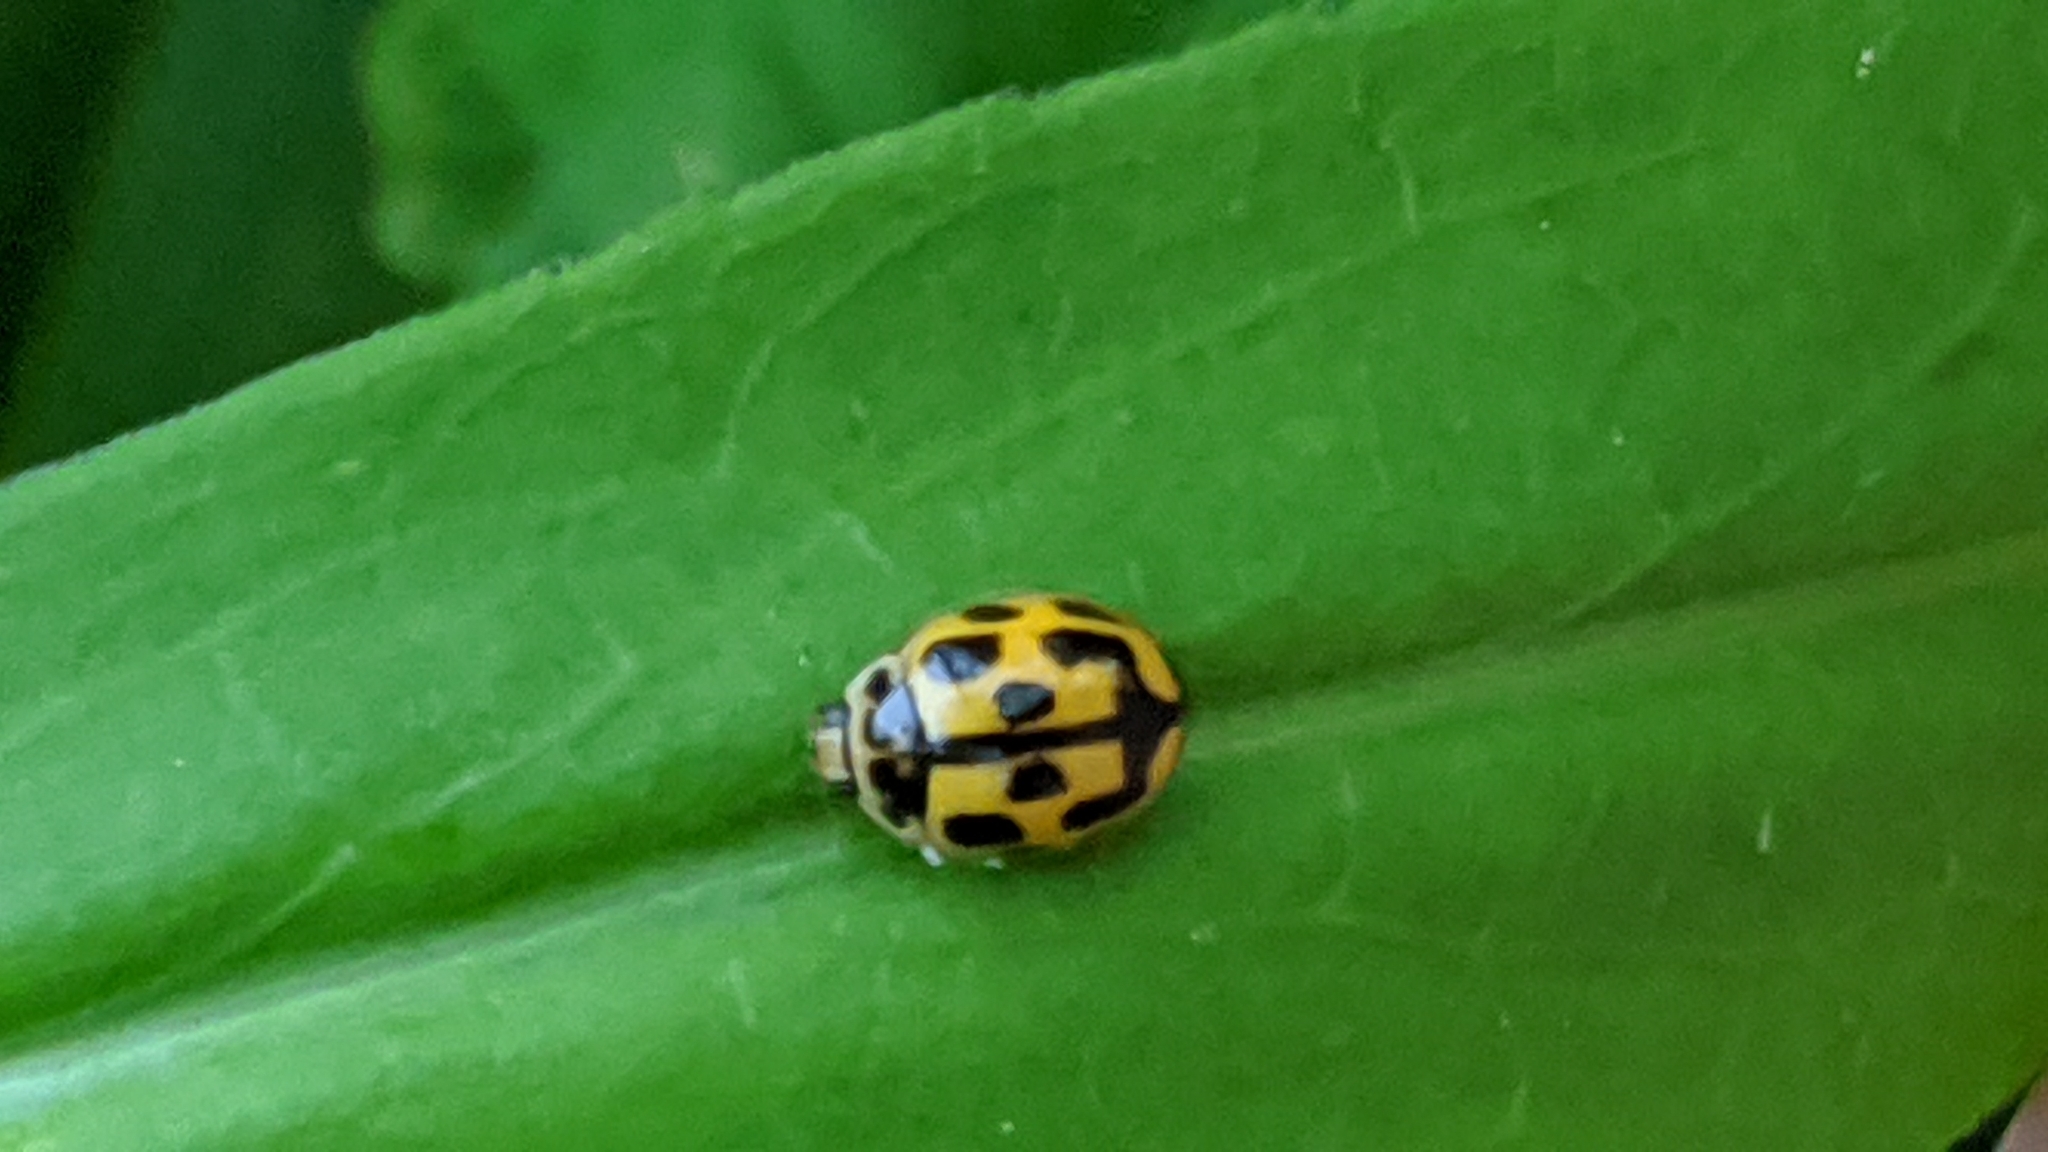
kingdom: Animalia
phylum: Arthropoda
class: Insecta
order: Coleoptera
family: Coccinellidae
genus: Propylaea
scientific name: Propylaea quatuordecimpunctata
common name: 14-spotted ladybird beetle
